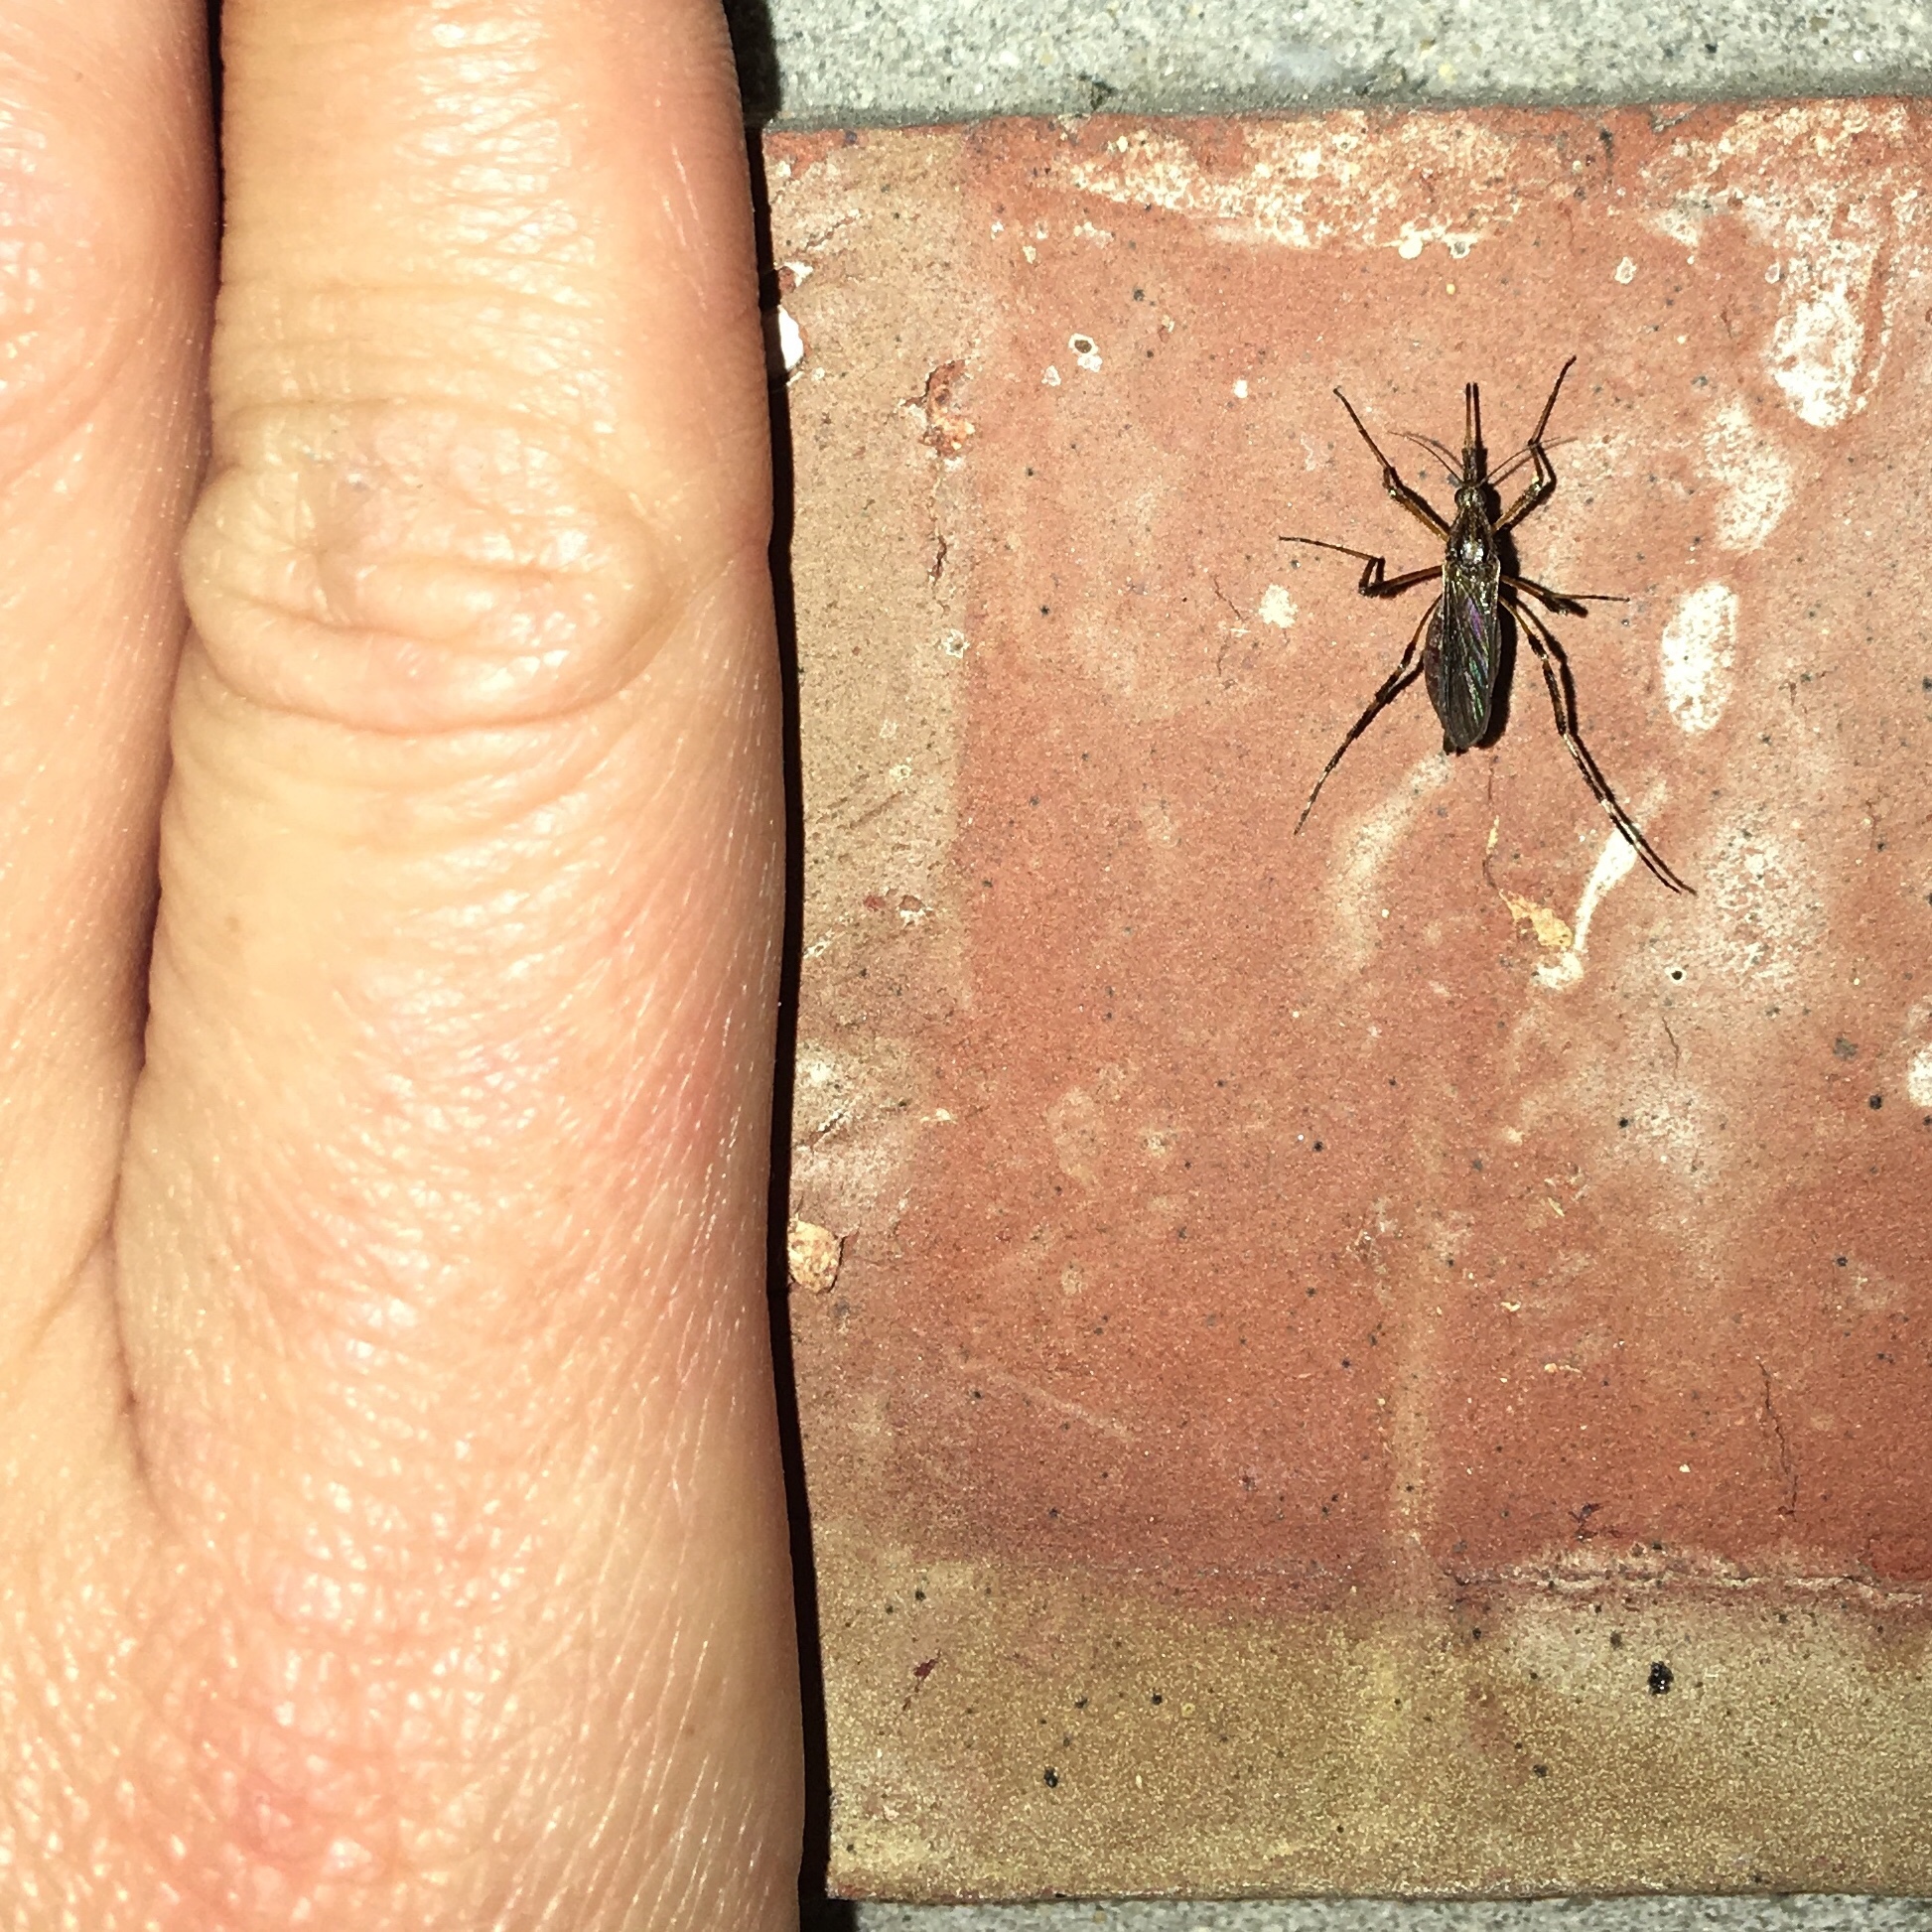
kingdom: Animalia
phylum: Arthropoda
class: Insecta
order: Diptera
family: Culicidae
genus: Psorophora
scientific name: Psorophora ciliata
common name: Gallinipper
